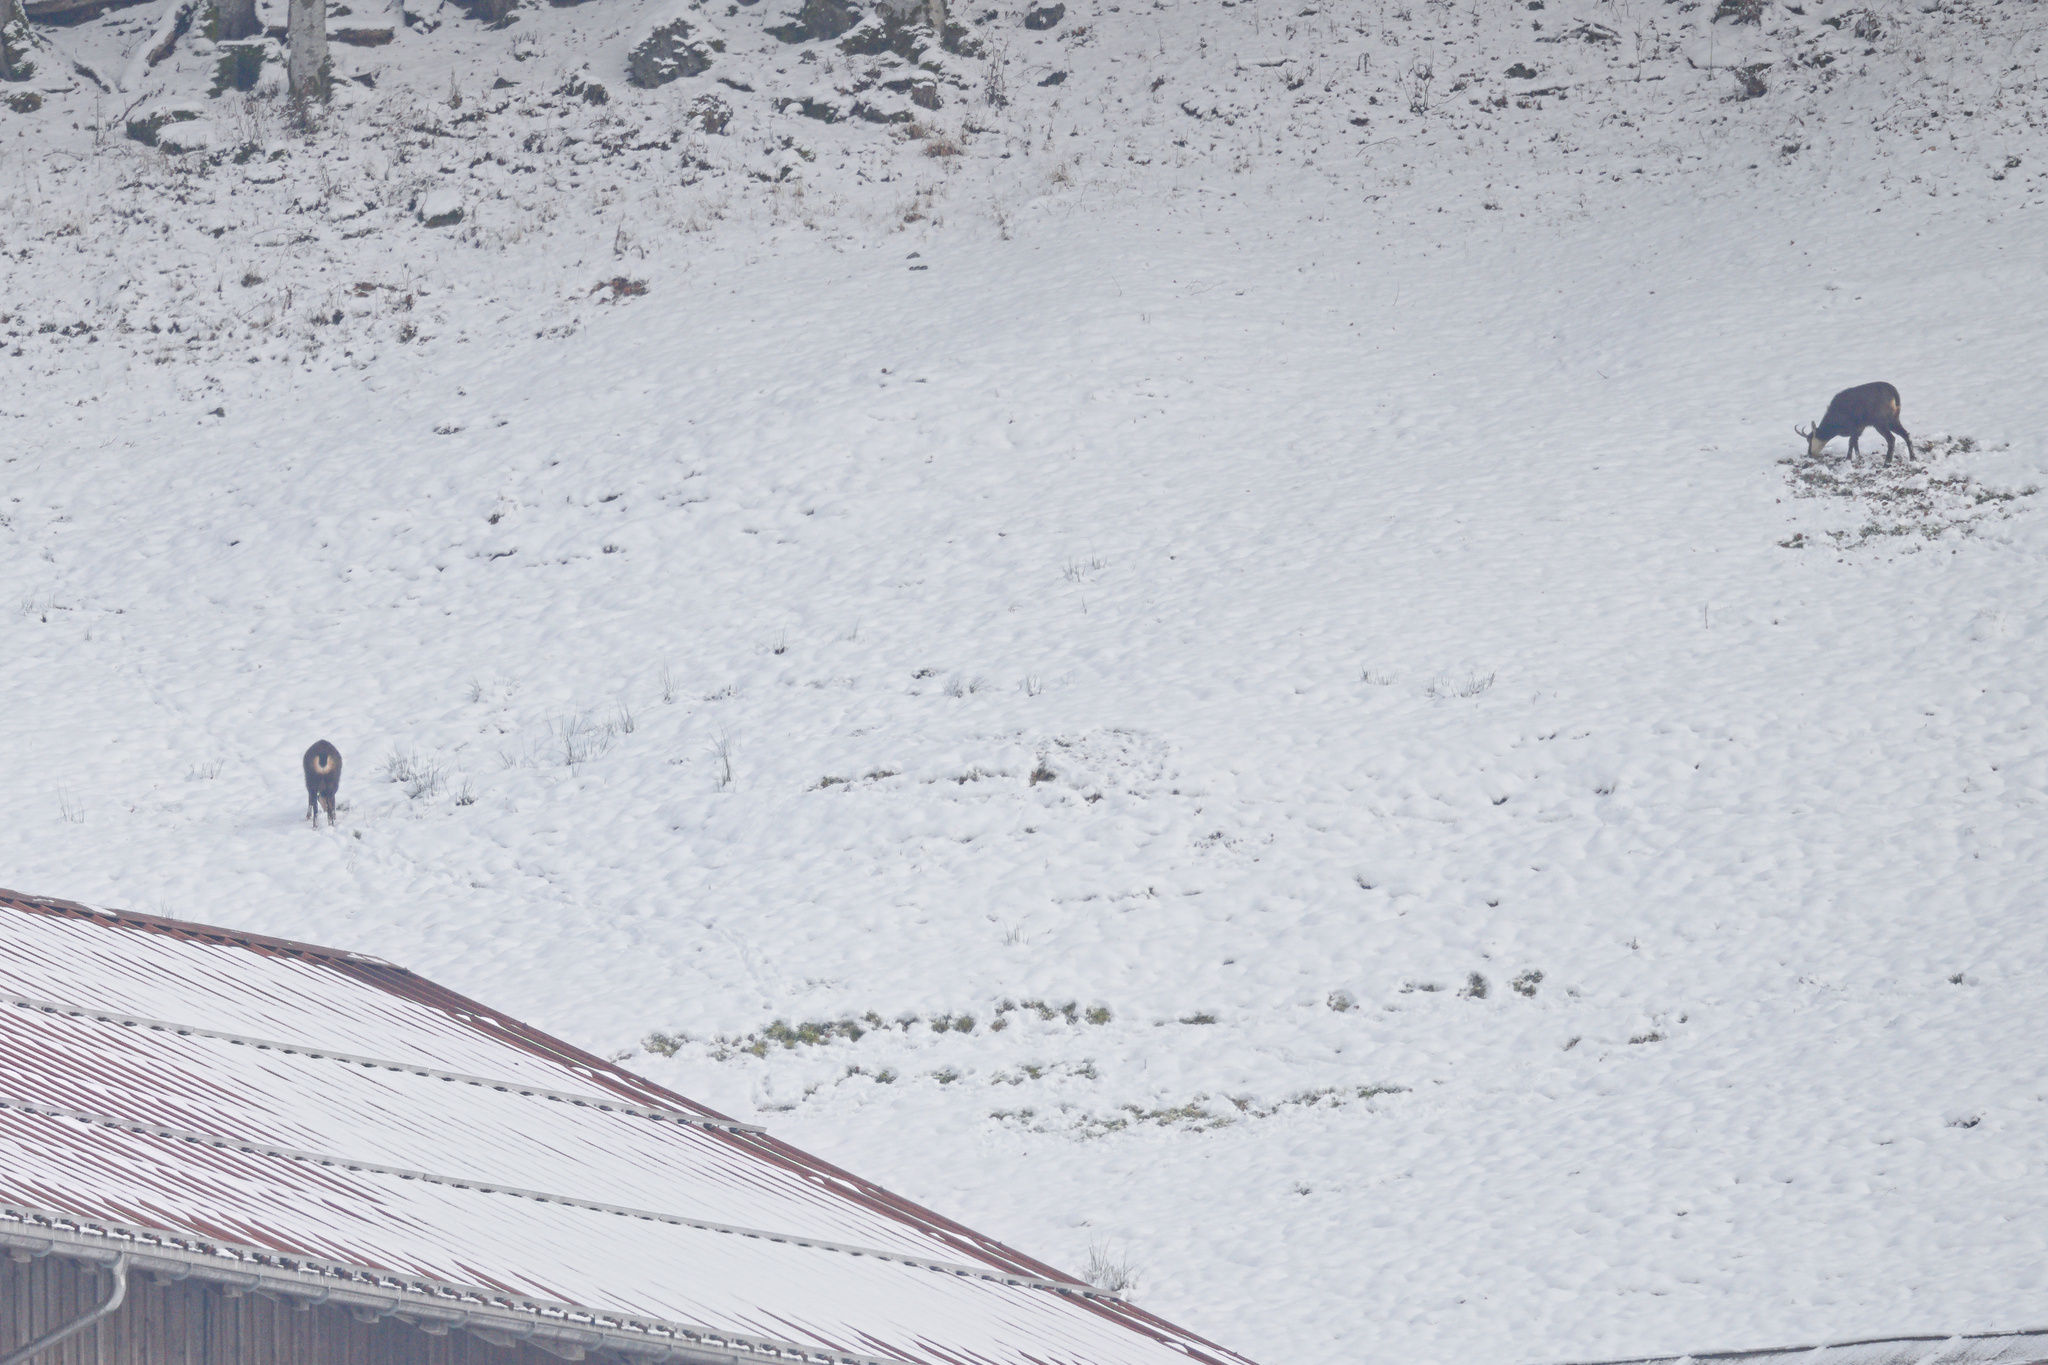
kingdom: Animalia
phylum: Chordata
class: Mammalia
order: Artiodactyla
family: Bovidae
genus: Rupicapra
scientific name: Rupicapra rupicapra
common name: Chamois
